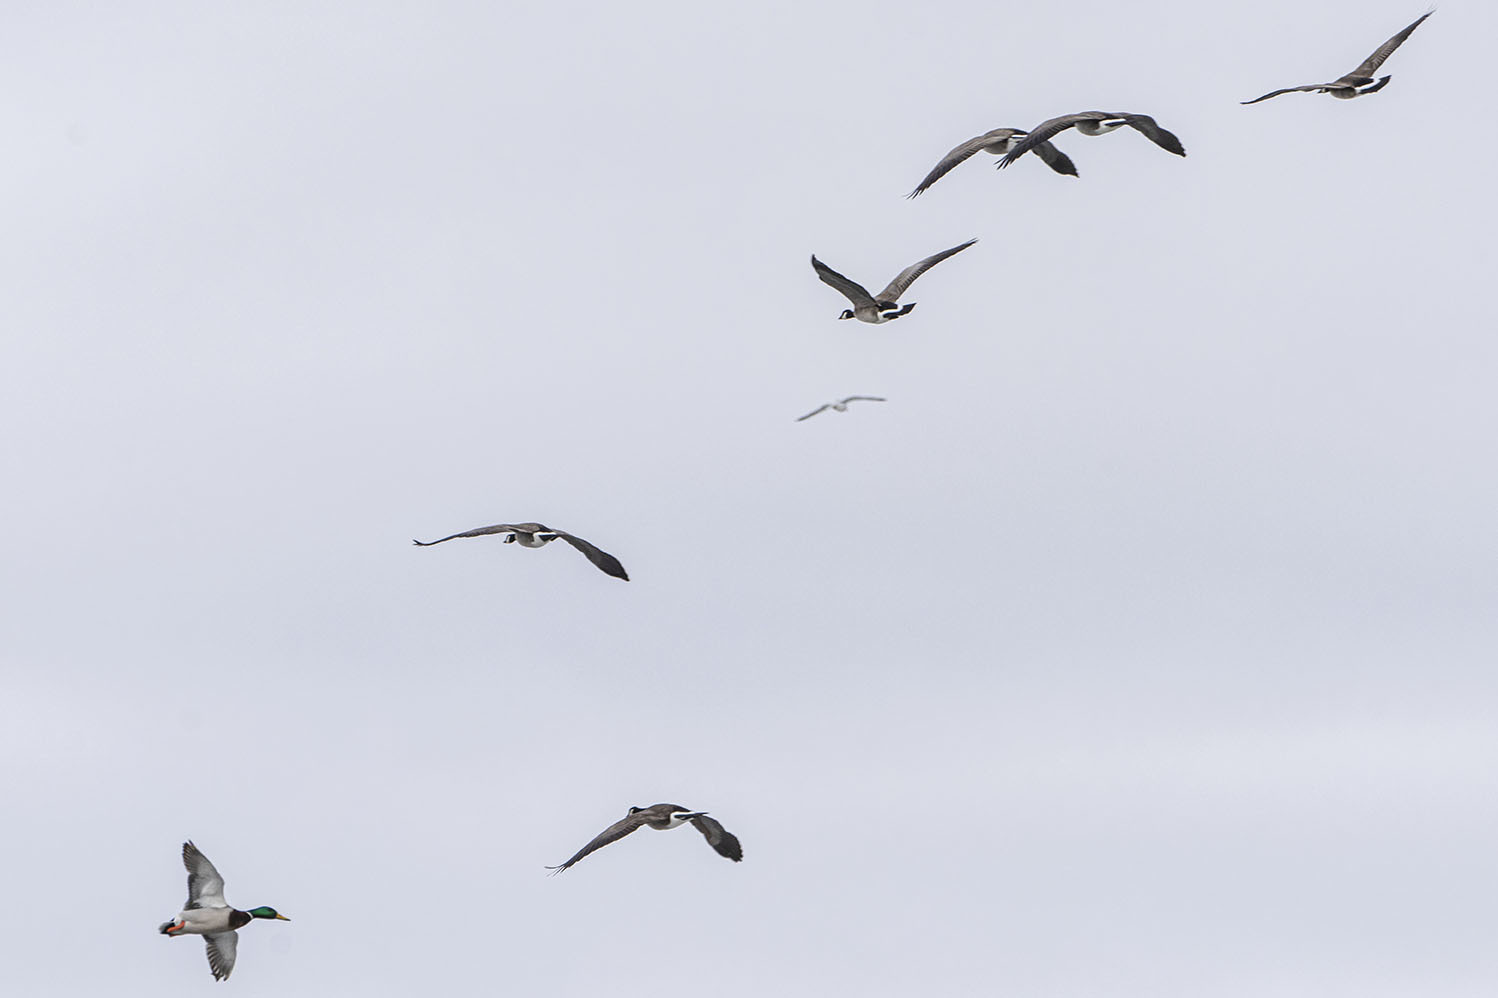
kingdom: Animalia
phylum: Chordata
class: Aves
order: Anseriformes
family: Anatidae
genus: Branta
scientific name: Branta canadensis
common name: Canada goose
